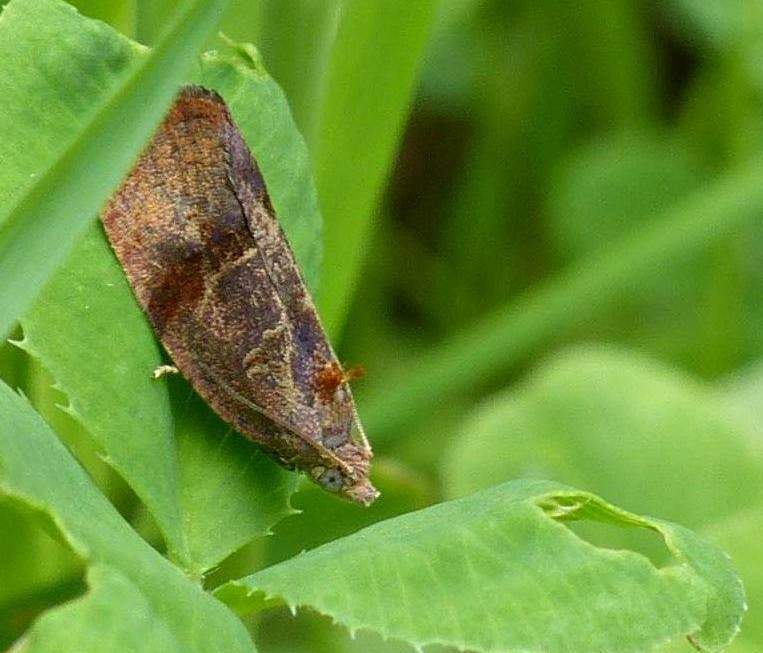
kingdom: Animalia
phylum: Arthropoda
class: Insecta
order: Lepidoptera
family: Tortricidae
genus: Evora
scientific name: Evora hemidesma
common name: Spirea leaftier moth
